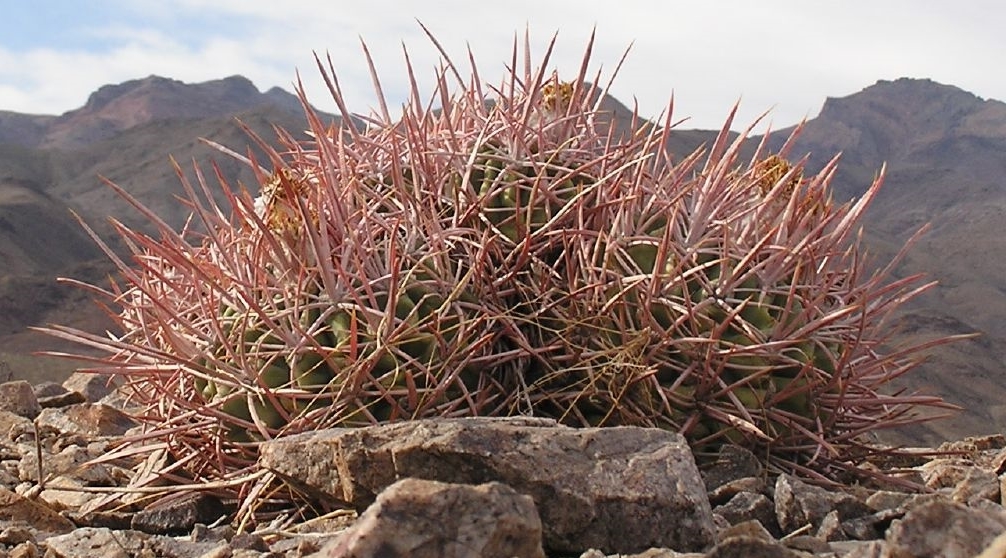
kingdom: Plantae
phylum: Tracheophyta
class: Magnoliopsida
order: Caryophyllales
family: Cactaceae
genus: Echinocactus
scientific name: Echinocactus polycephalus
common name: Cottontop cactus
